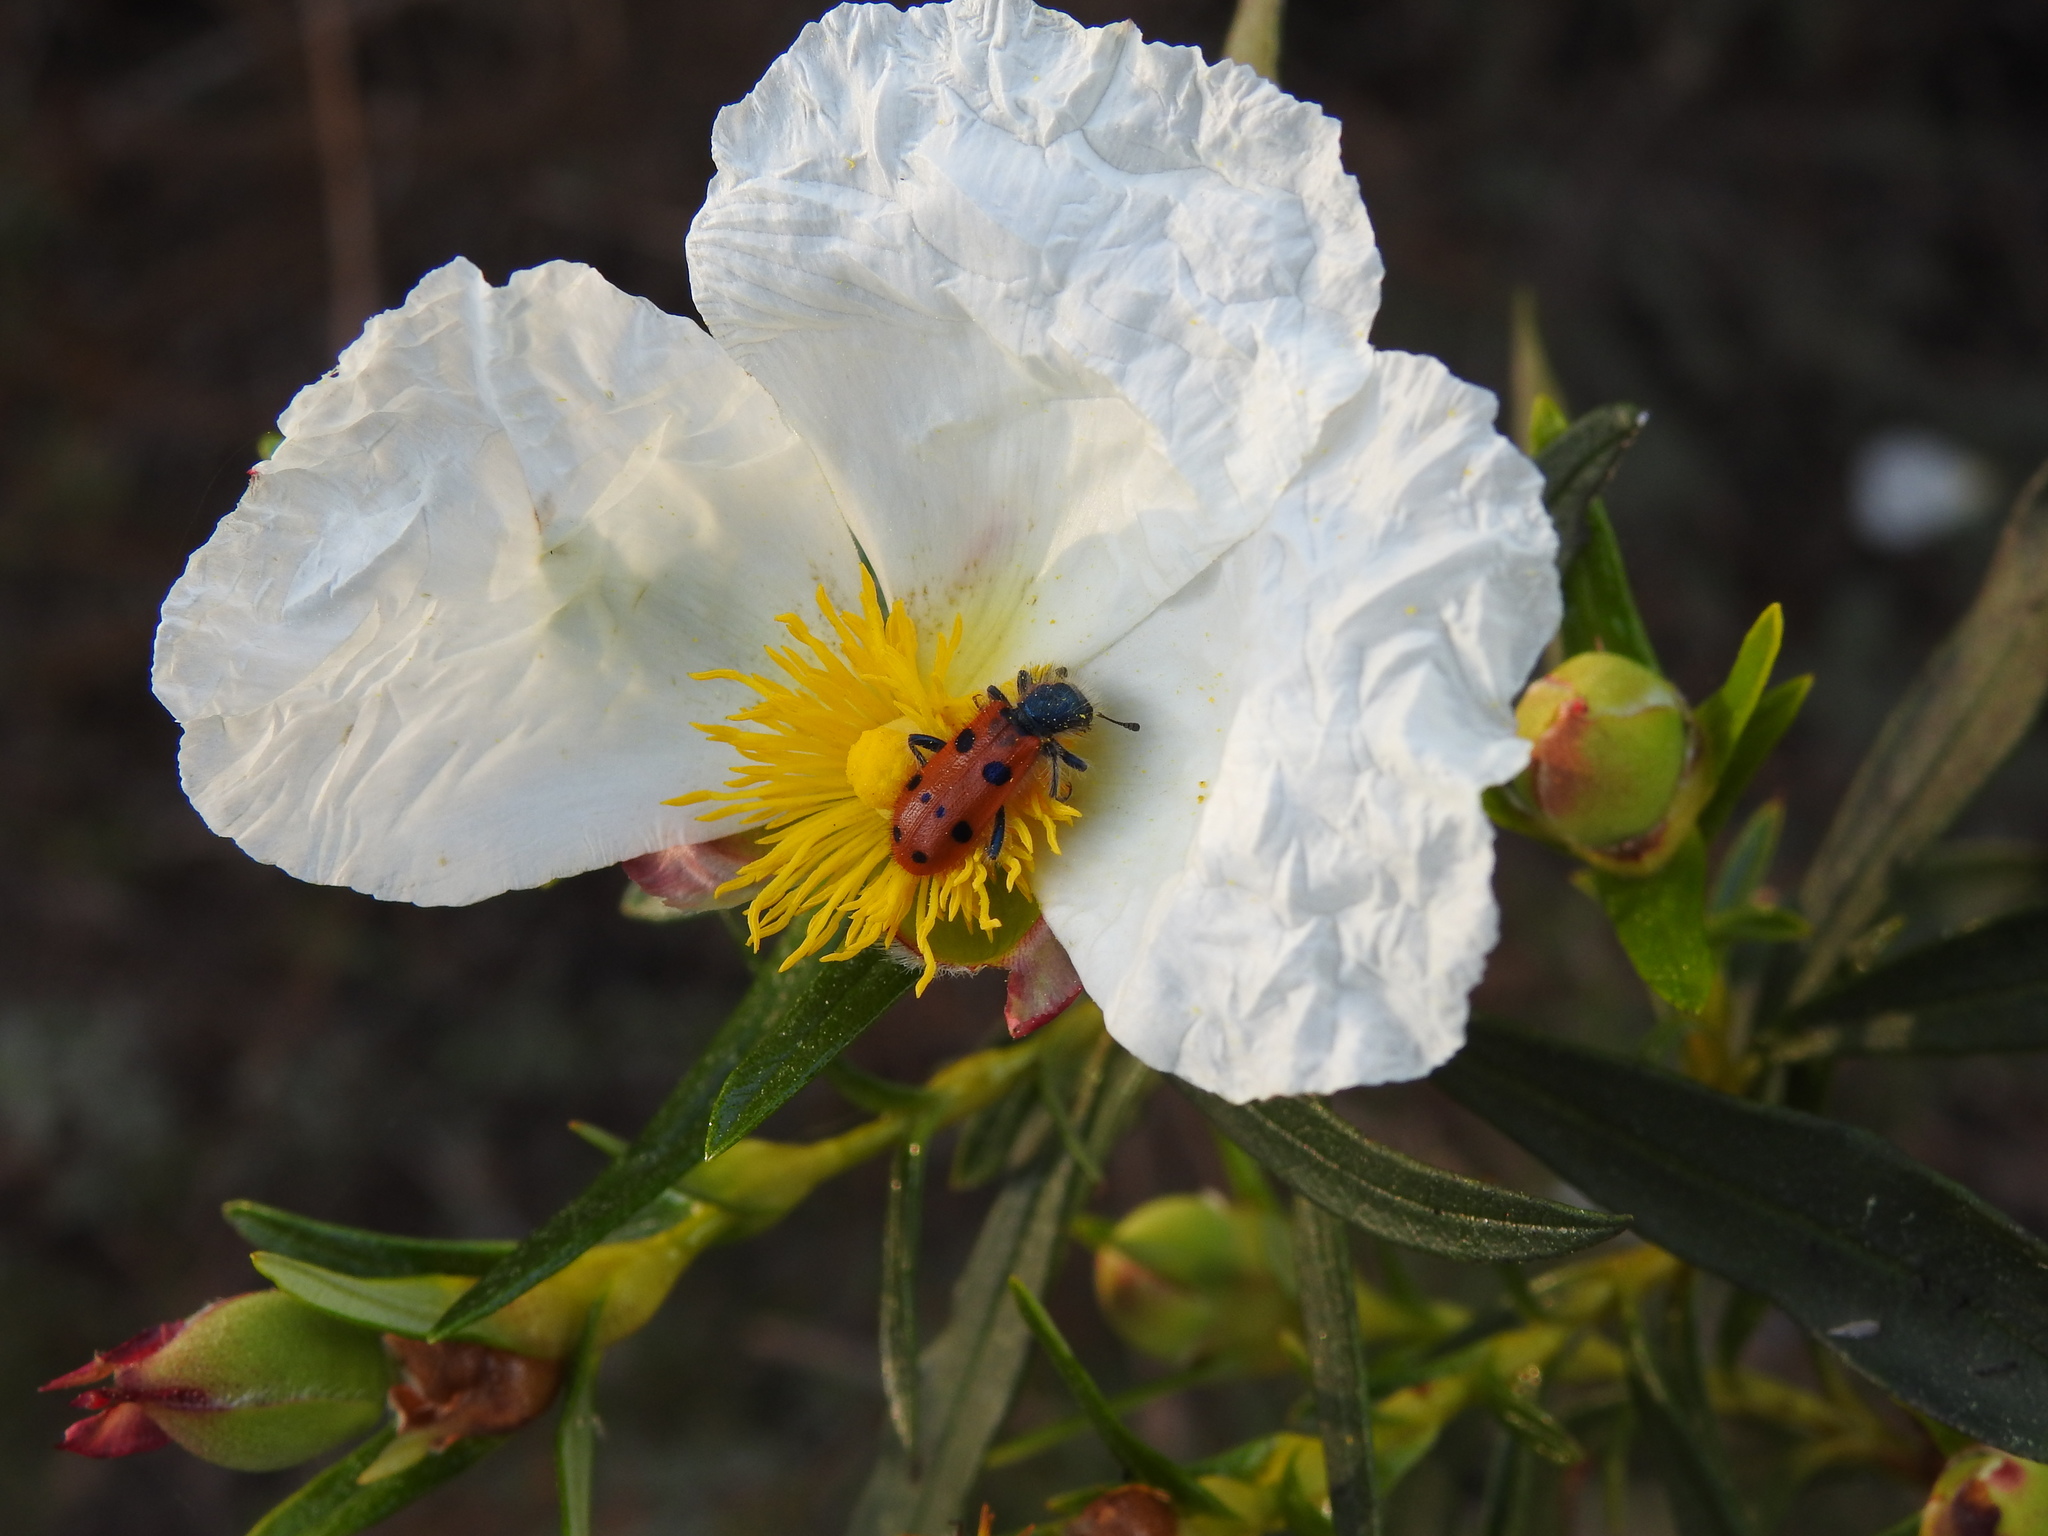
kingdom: Animalia
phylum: Arthropoda
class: Insecta
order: Coleoptera
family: Cleridae
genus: Trichodes
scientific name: Trichodes octopunctatus
